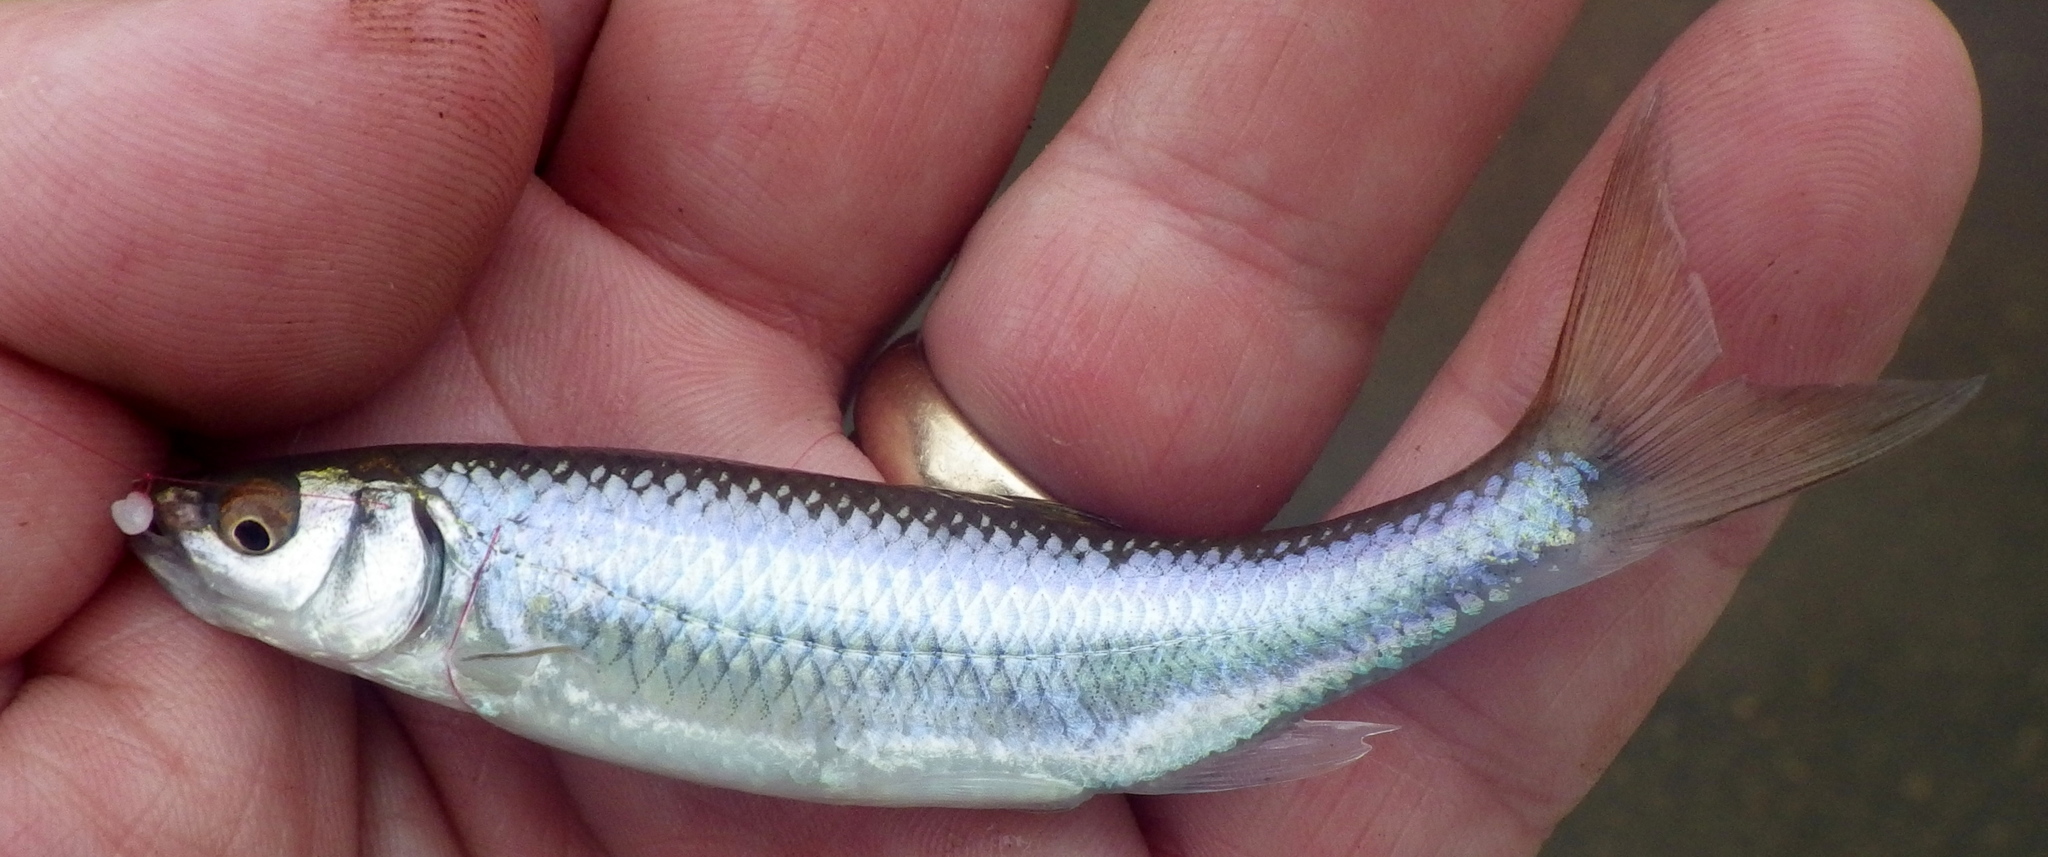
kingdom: Animalia
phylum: Chordata
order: Cypriniformes
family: Cyprinidae
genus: Cyprinella
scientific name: Cyprinella spiloptera
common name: Spotfin shiner
